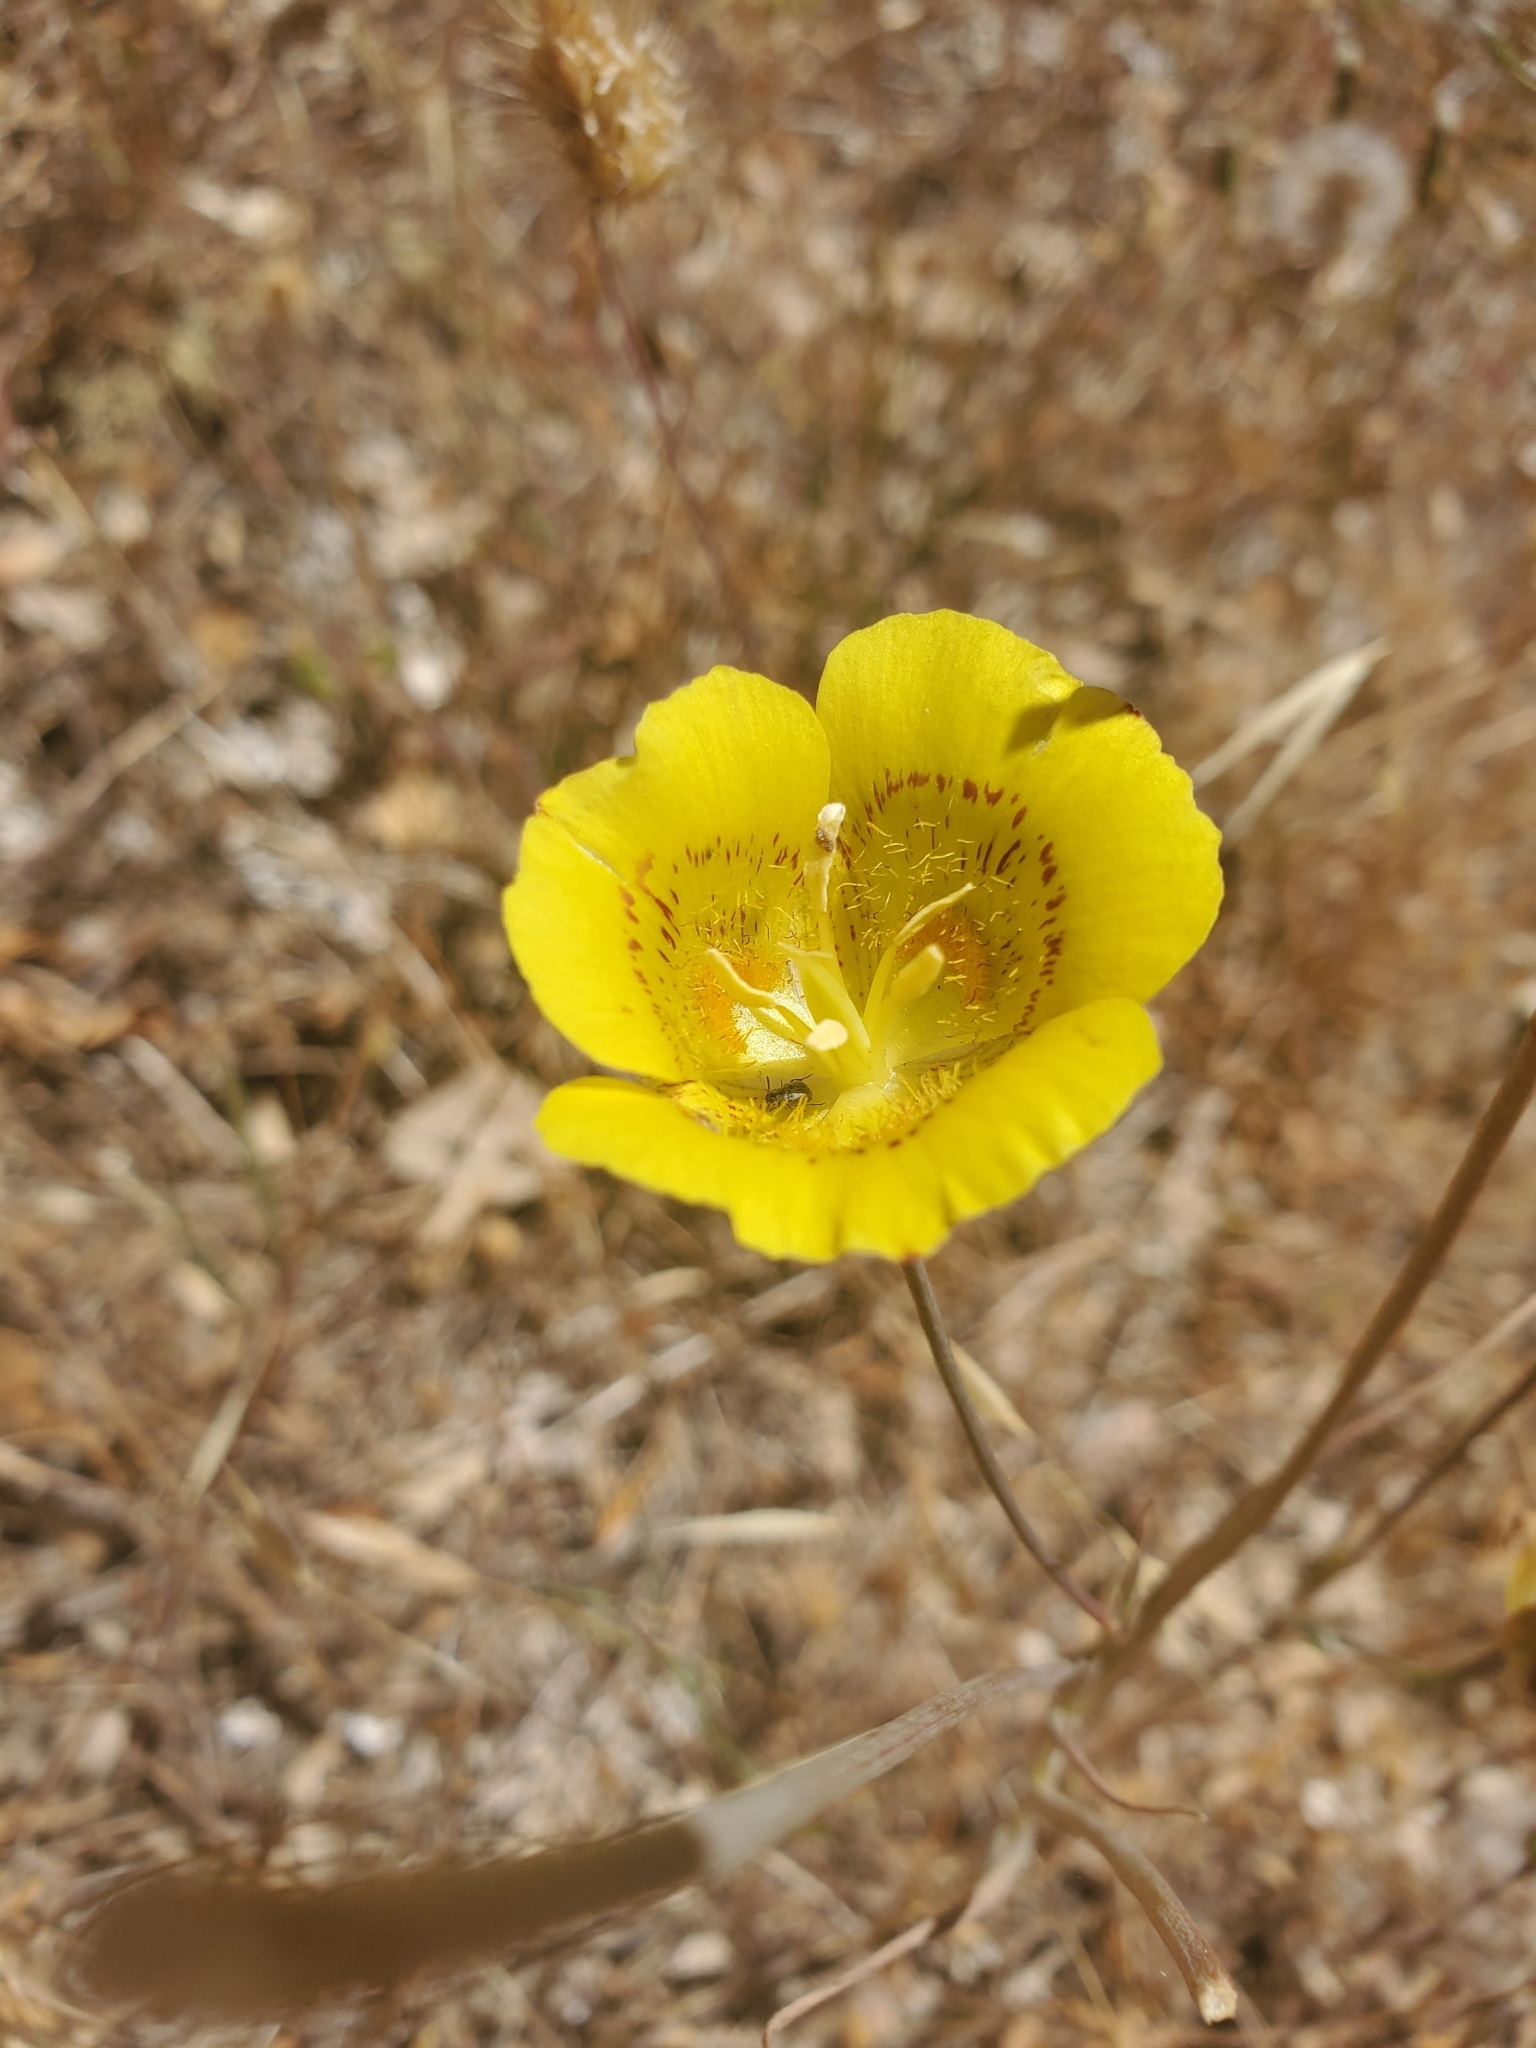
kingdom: Plantae
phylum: Tracheophyta
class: Liliopsida
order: Liliales
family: Liliaceae
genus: Calochortus
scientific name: Calochortus luteus
